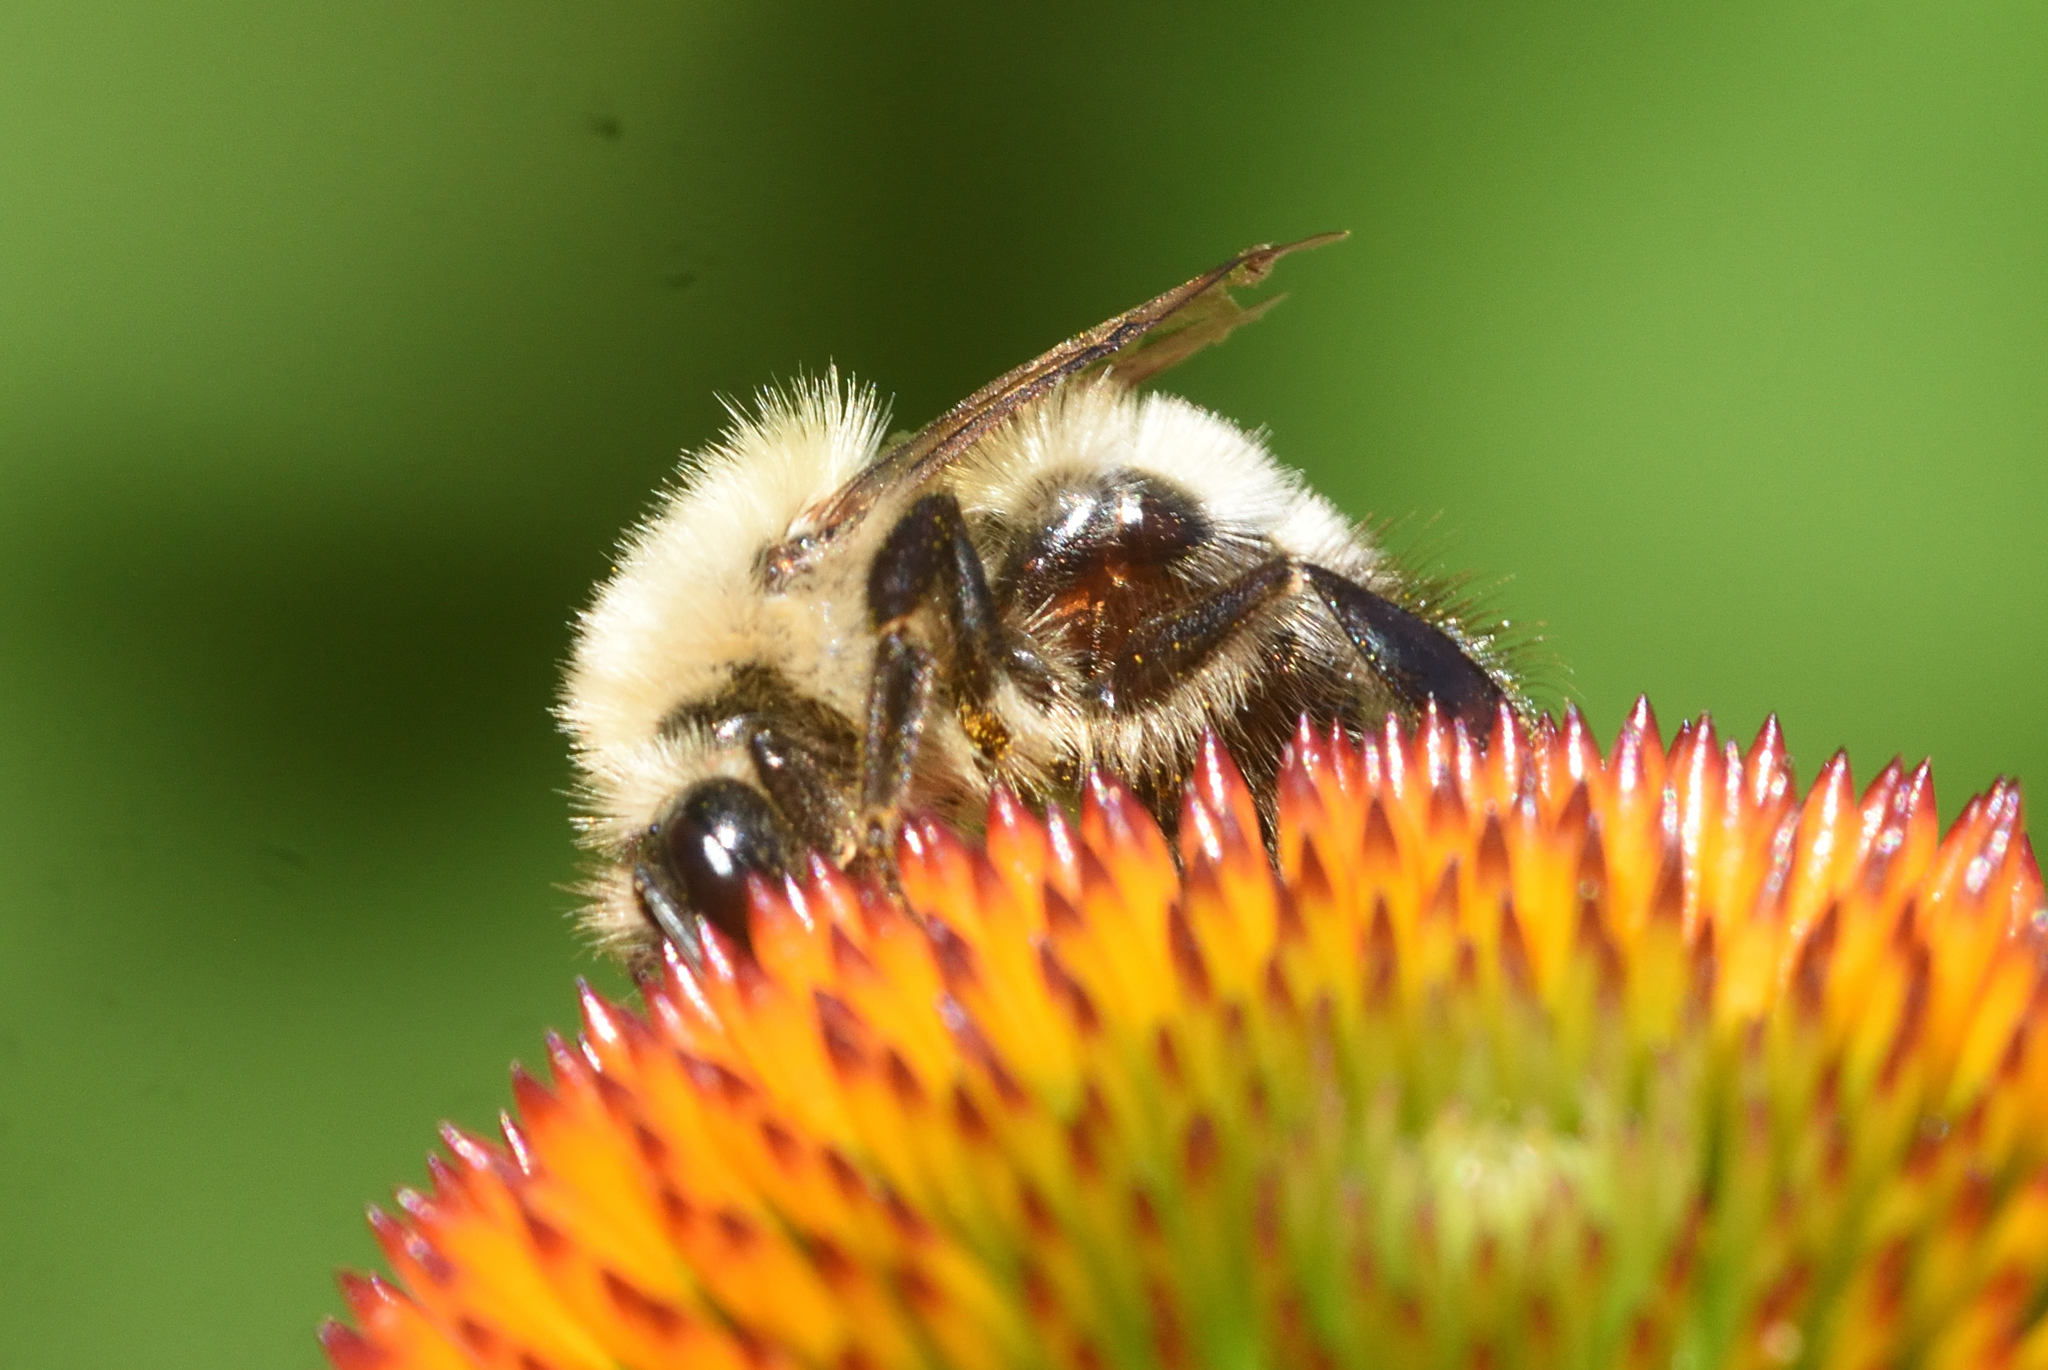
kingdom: Animalia
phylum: Arthropoda
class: Insecta
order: Hymenoptera
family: Apidae
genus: Bombus
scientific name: Bombus perplexus
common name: Confusing bumble bee
